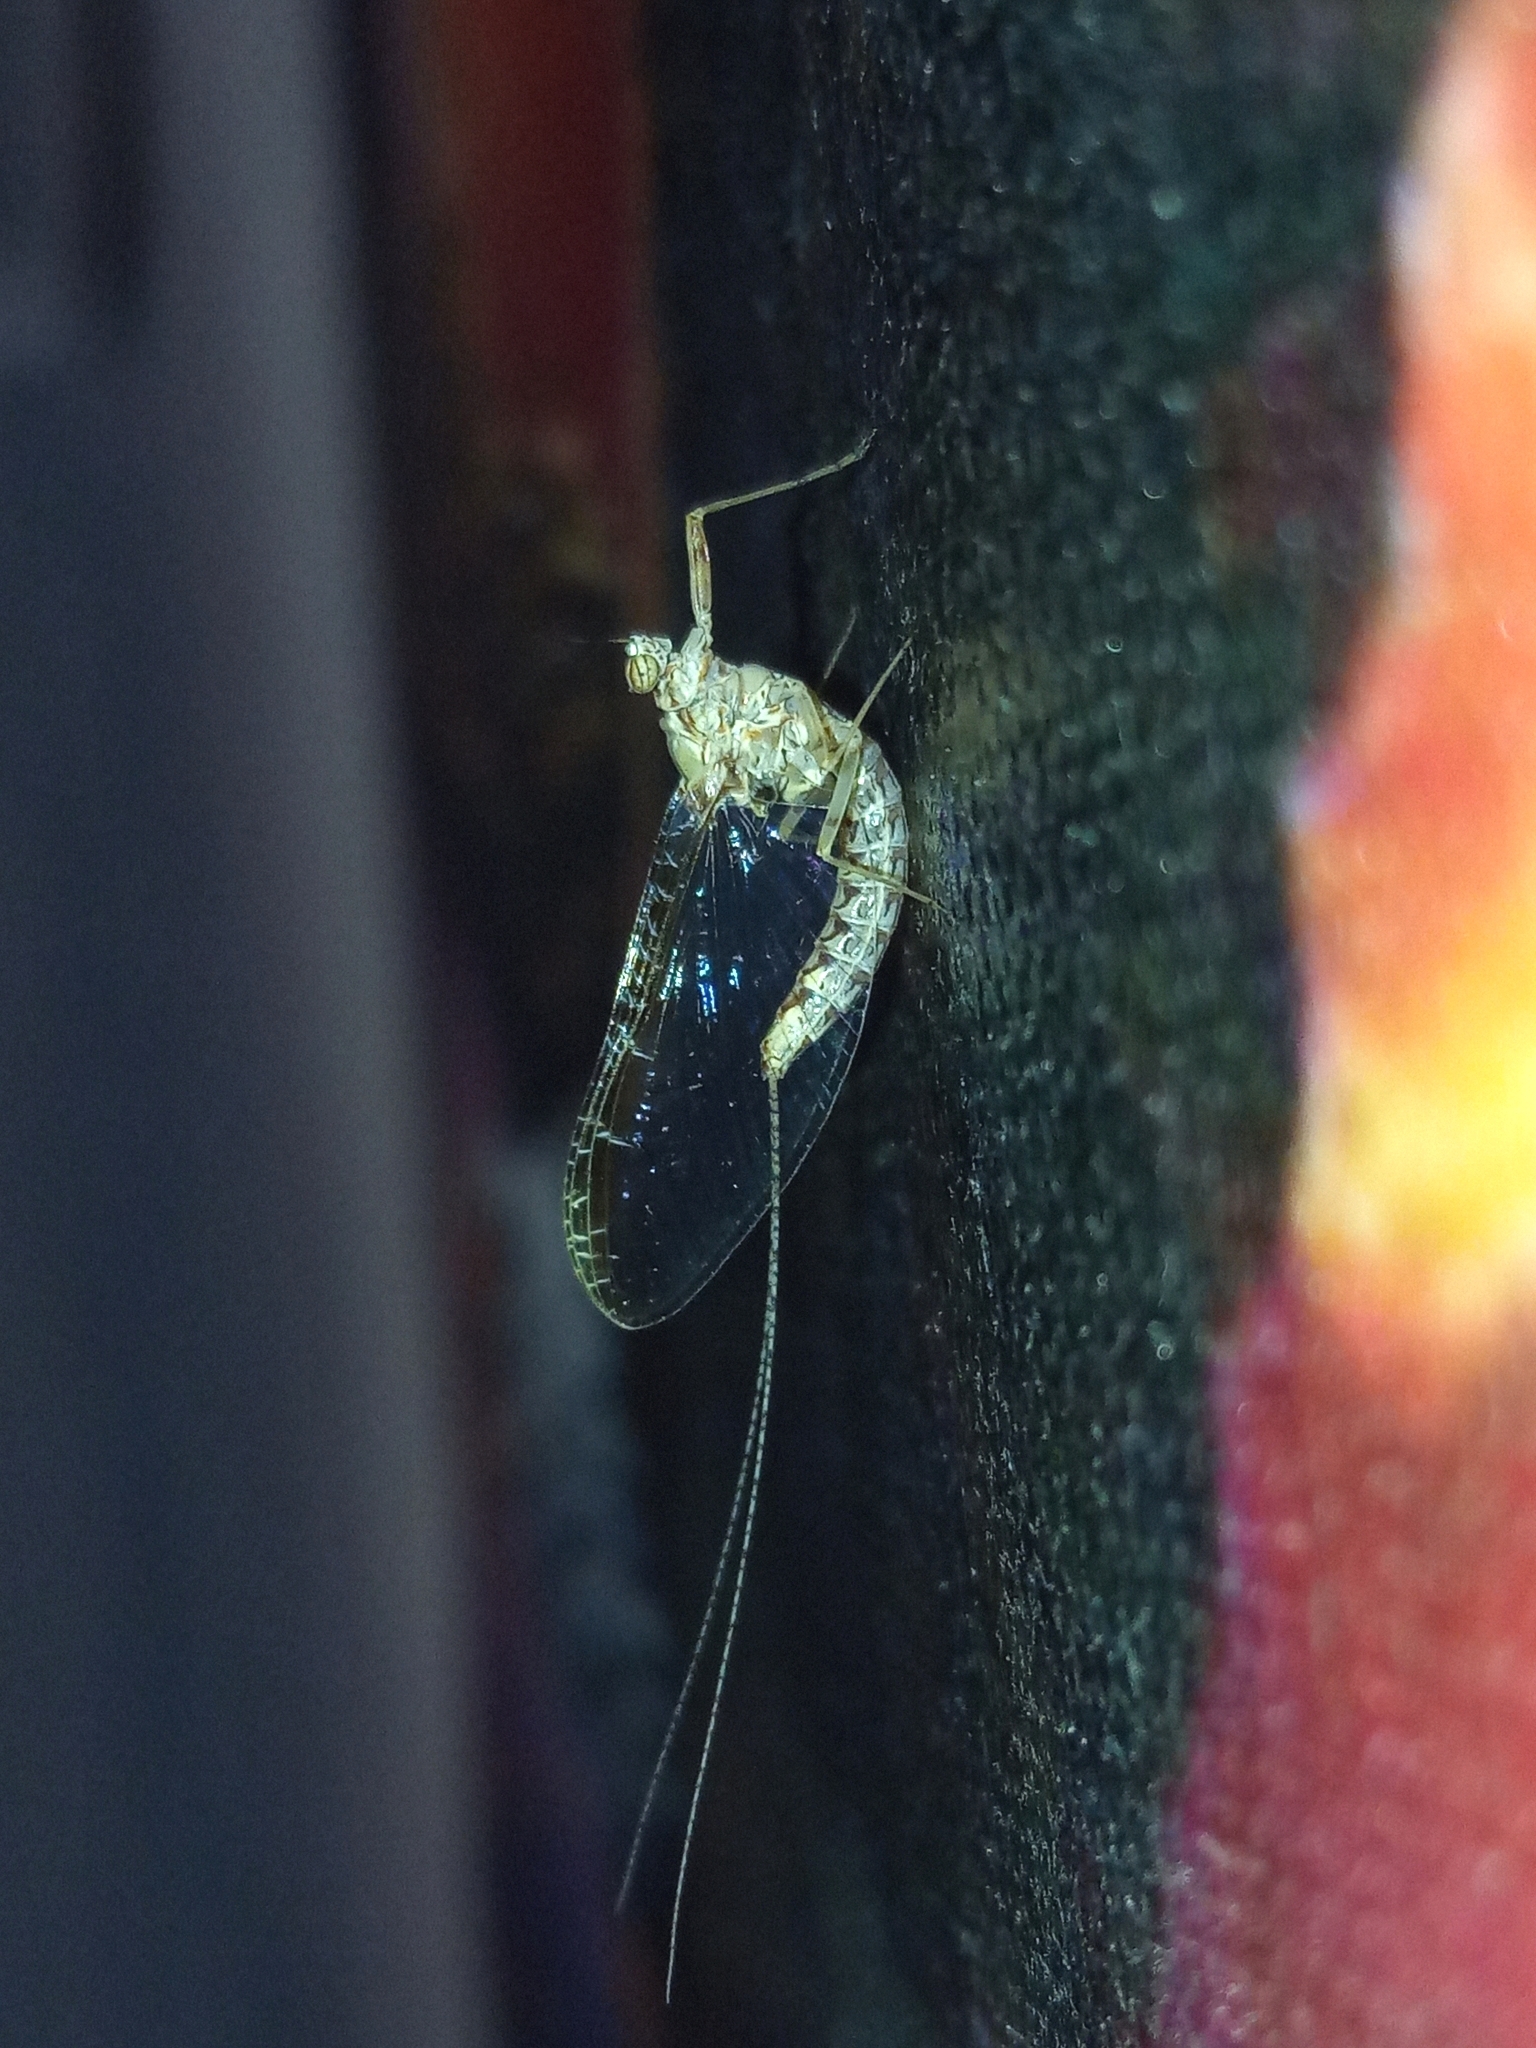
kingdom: Animalia
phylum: Arthropoda
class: Insecta
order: Ephemeroptera
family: Baetidae
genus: Cloeon
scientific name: Cloeon dipterum
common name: Pond olive
